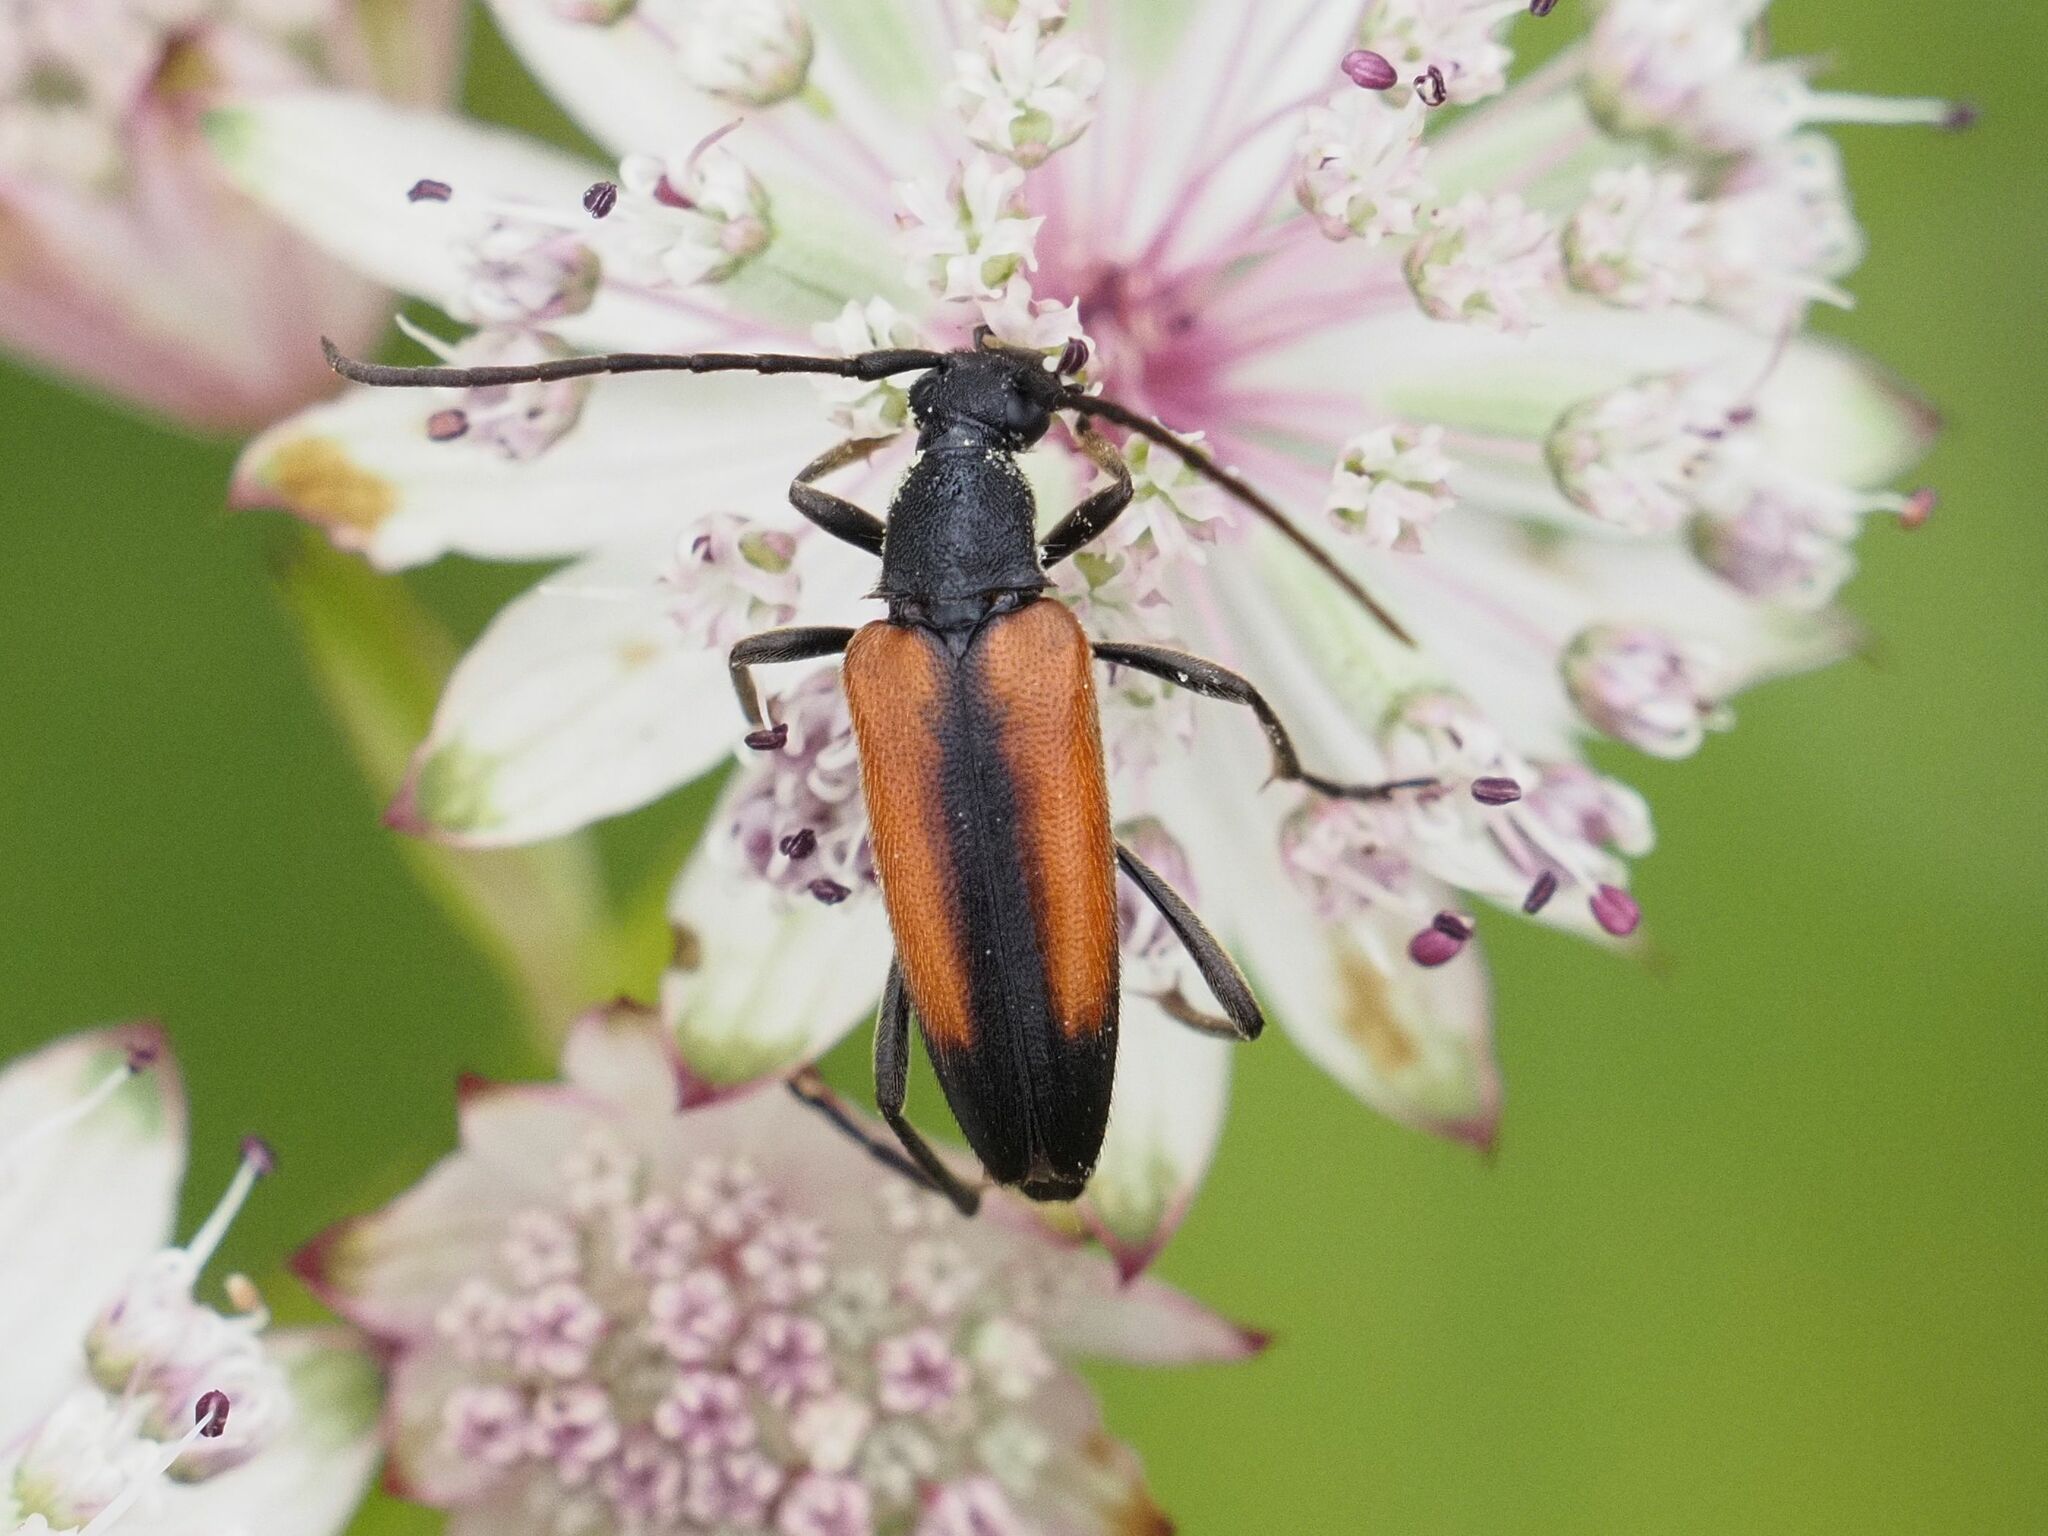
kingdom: Animalia
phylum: Arthropoda
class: Insecta
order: Coleoptera
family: Cerambycidae
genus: Stenurella
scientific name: Stenurella melanura
